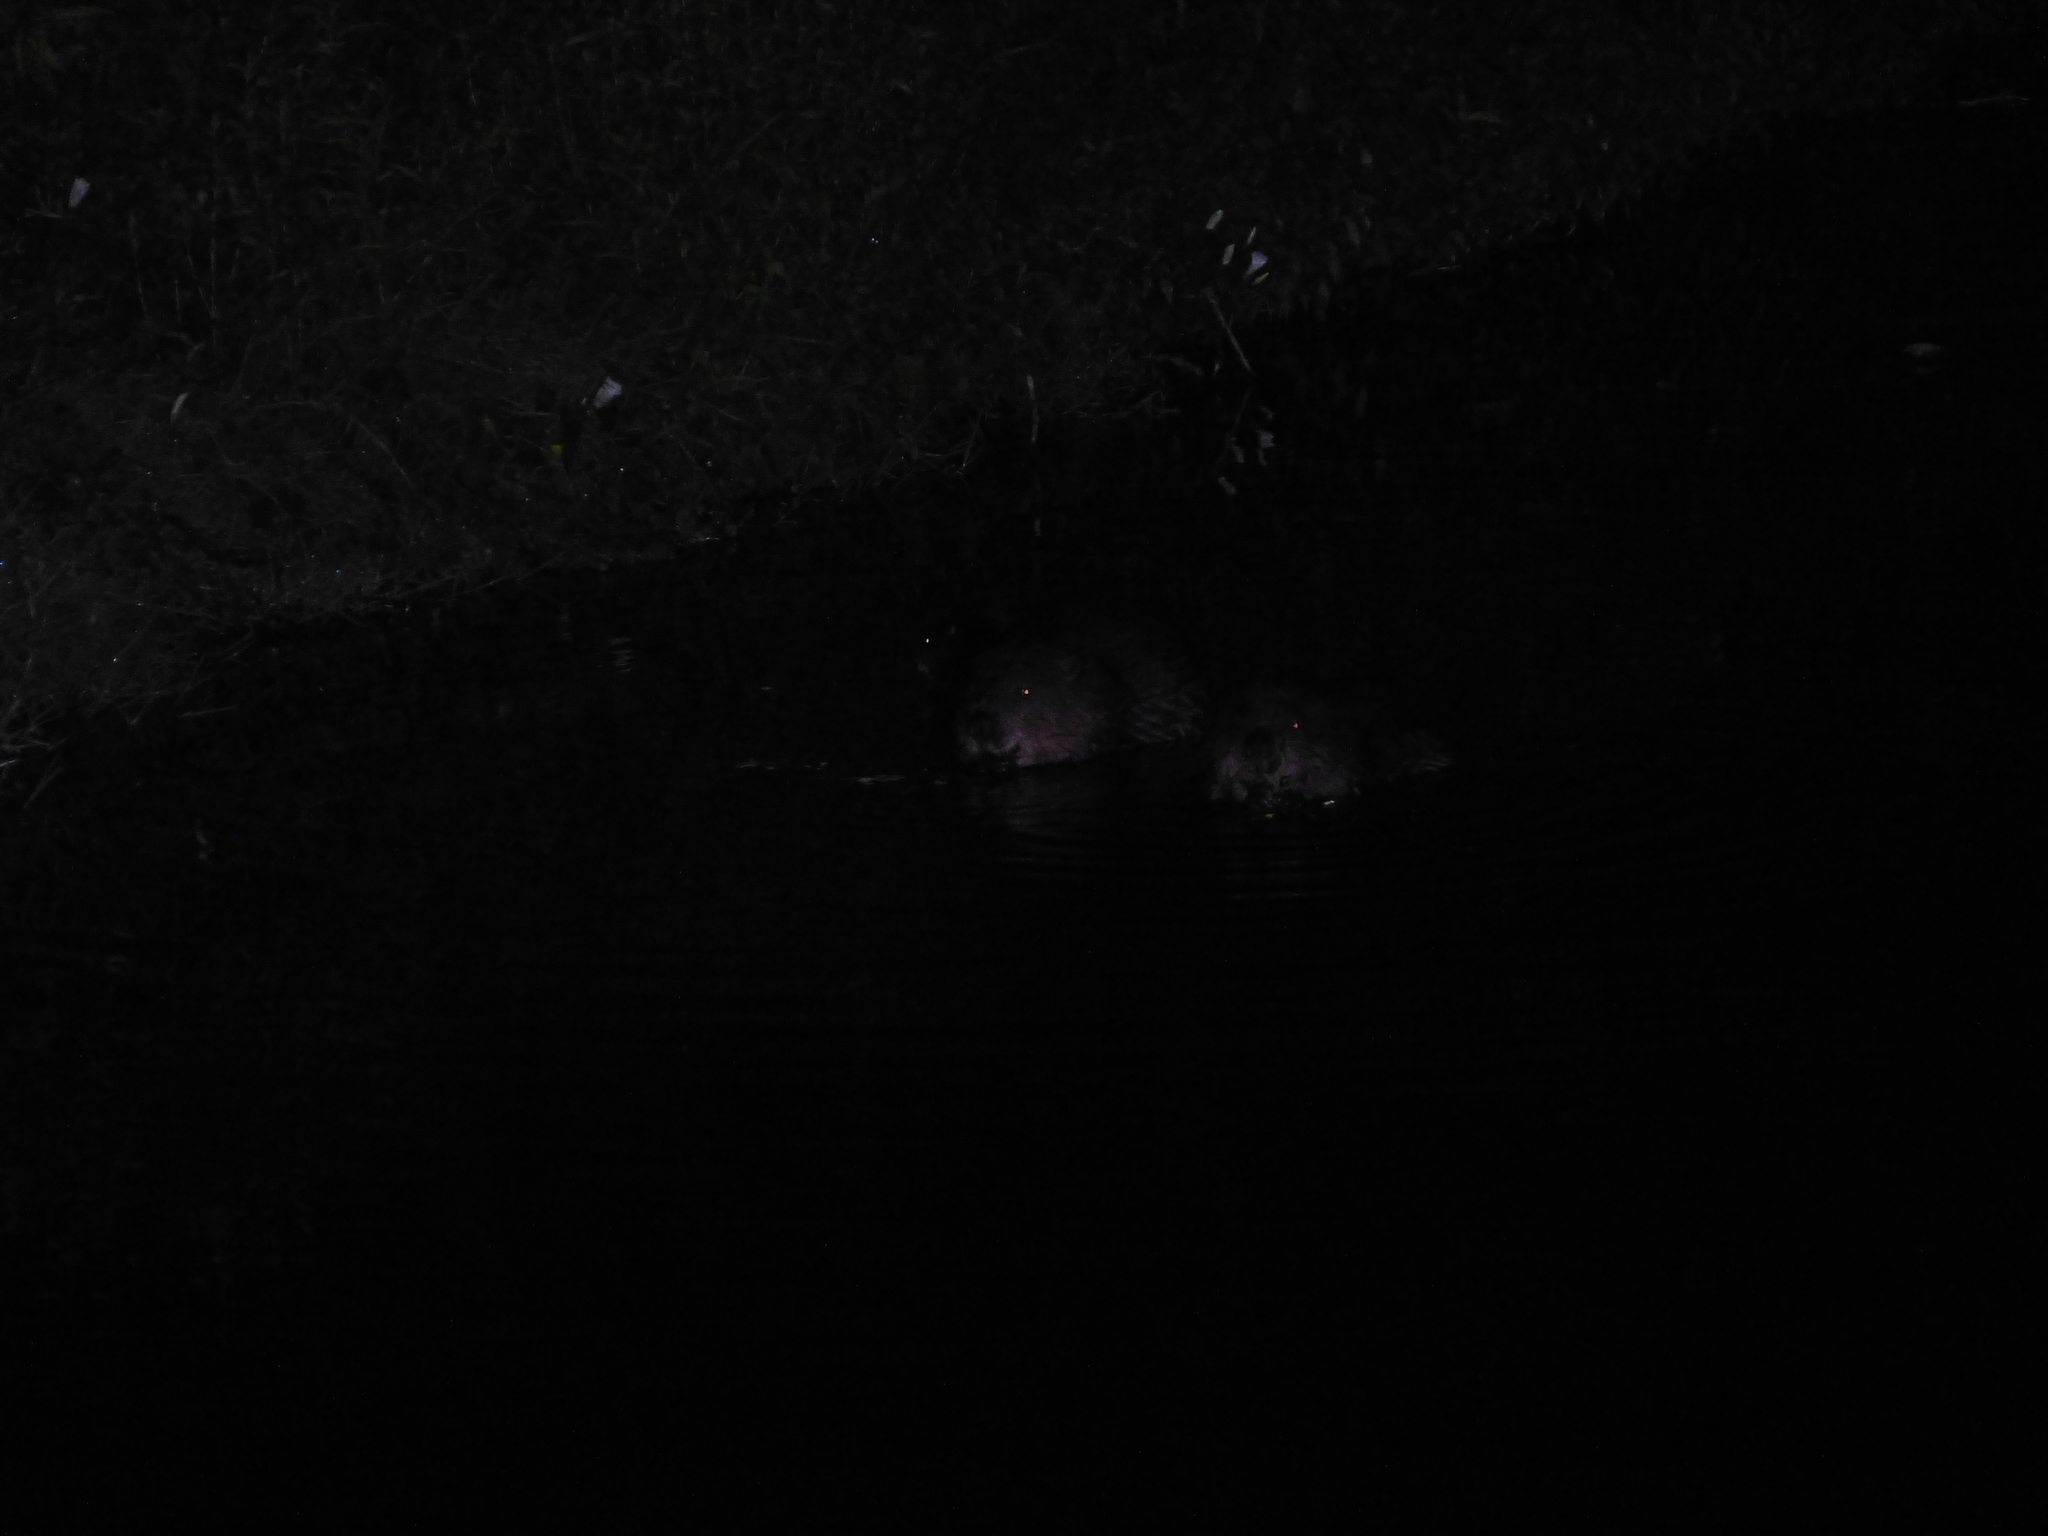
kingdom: Animalia
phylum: Chordata
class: Mammalia
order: Rodentia
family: Castoridae
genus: Castor
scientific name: Castor fiber
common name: Eurasian beaver
